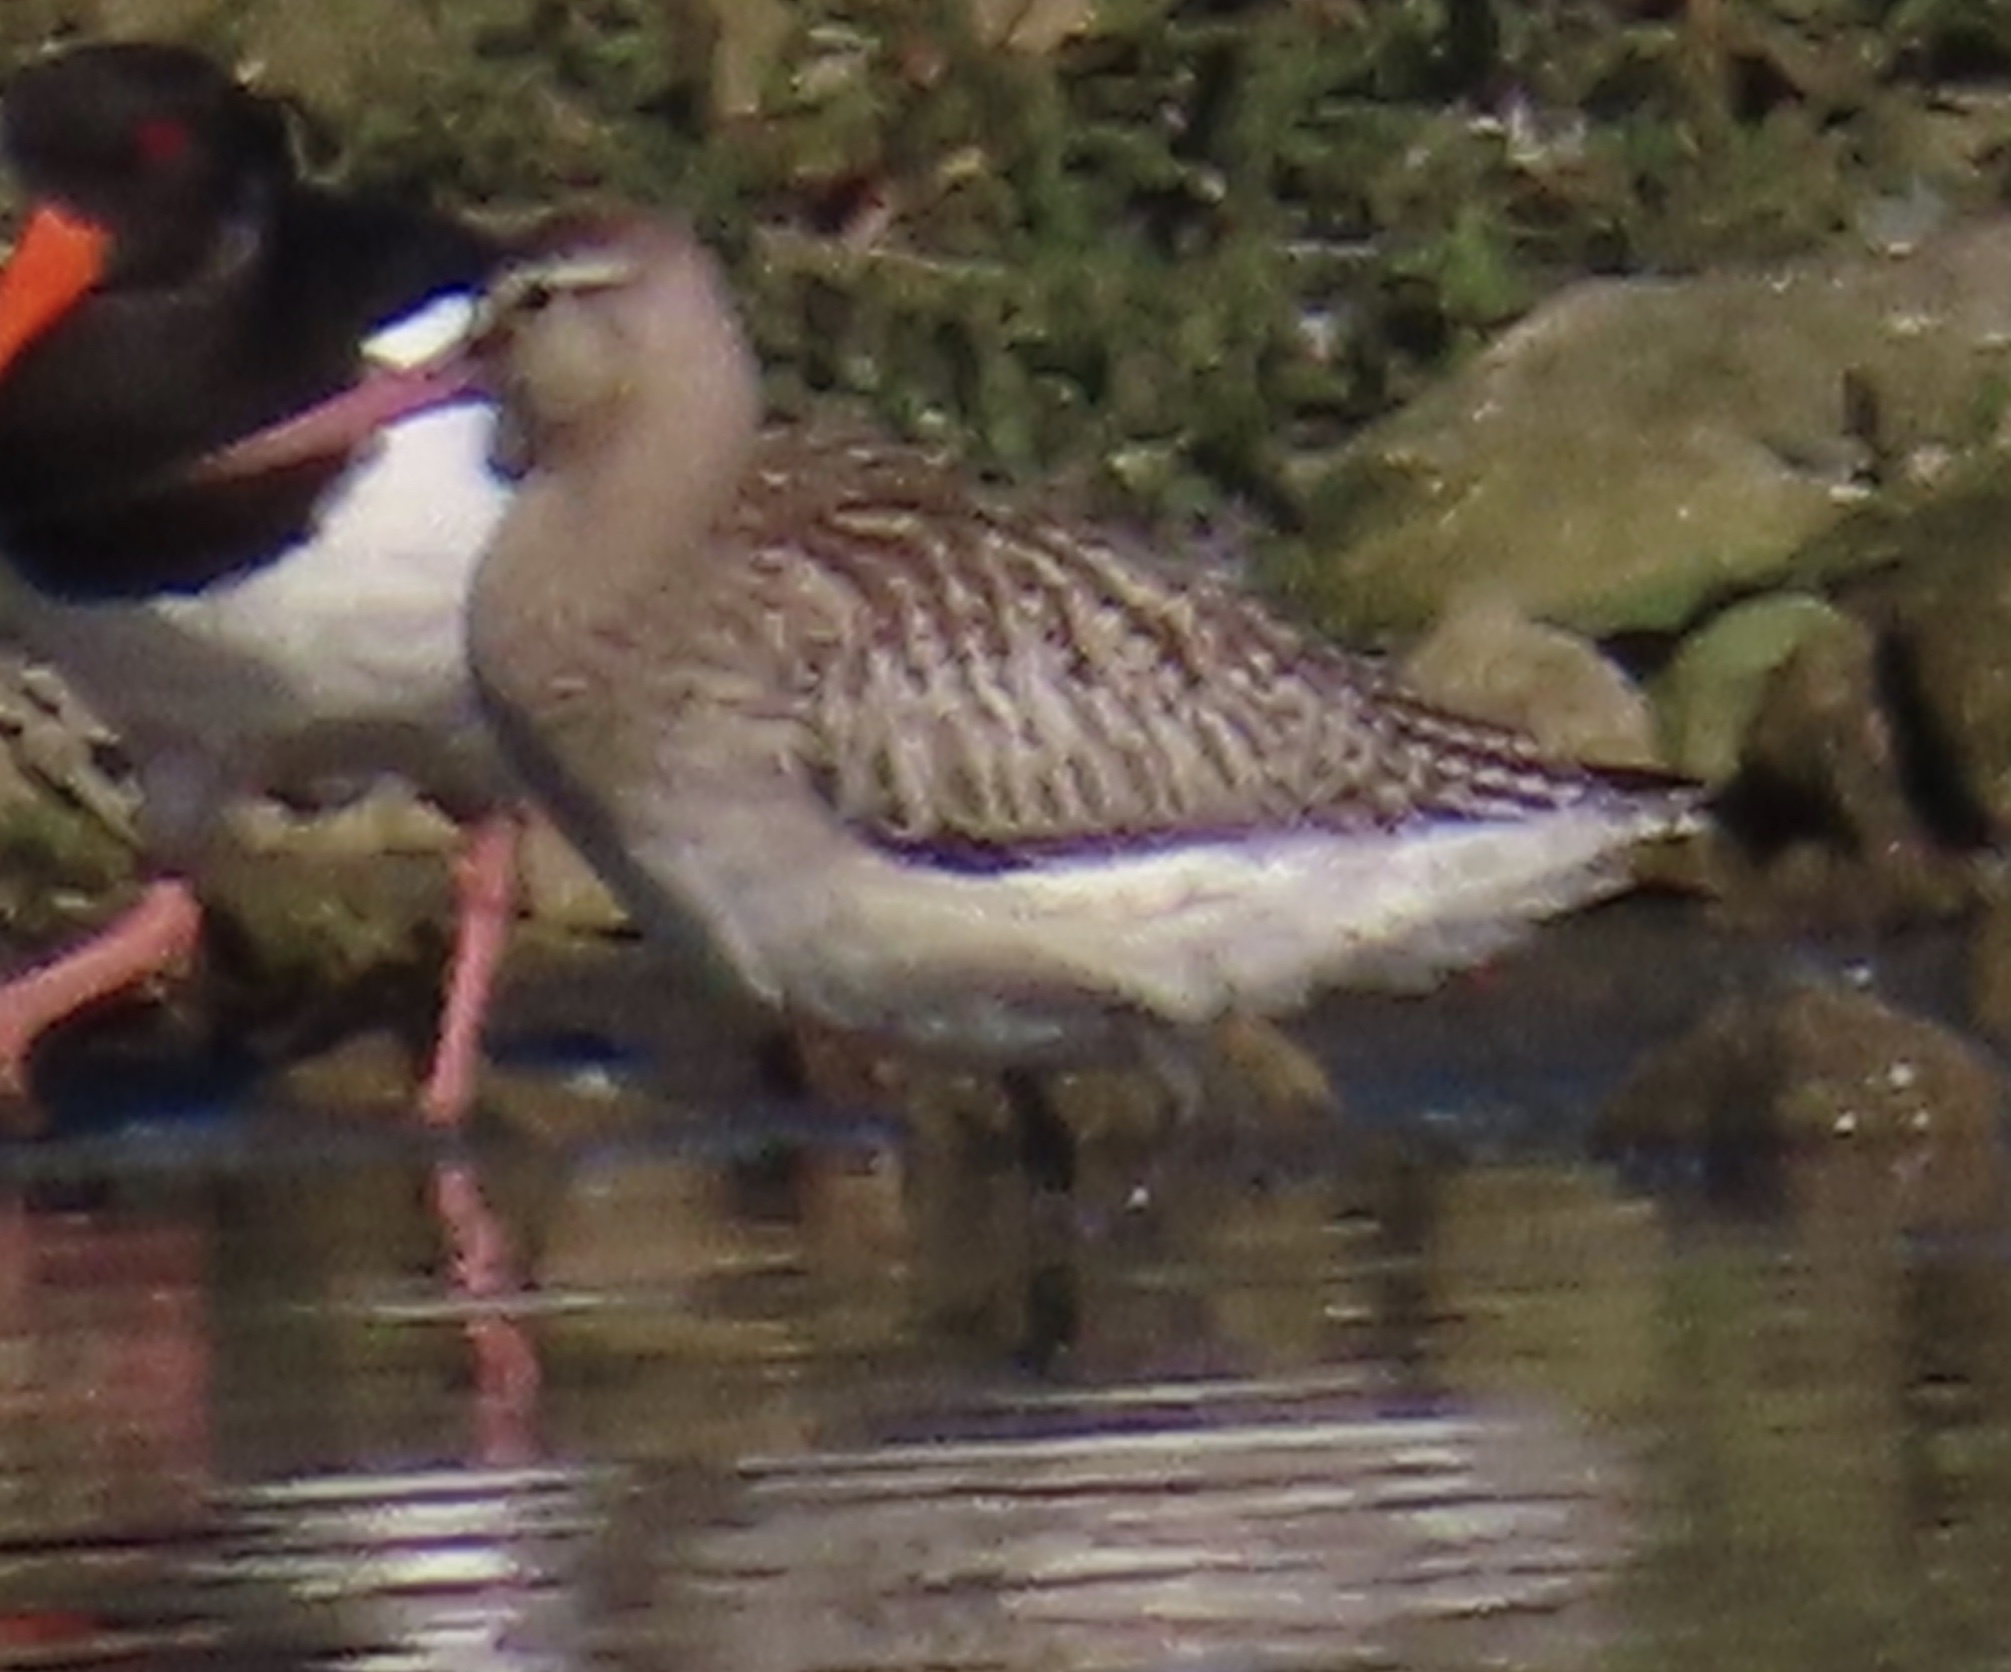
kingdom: Animalia
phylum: Chordata
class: Aves
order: Charadriiformes
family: Scolopacidae
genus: Limosa
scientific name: Limosa lapponica
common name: Bar-tailed godwit
